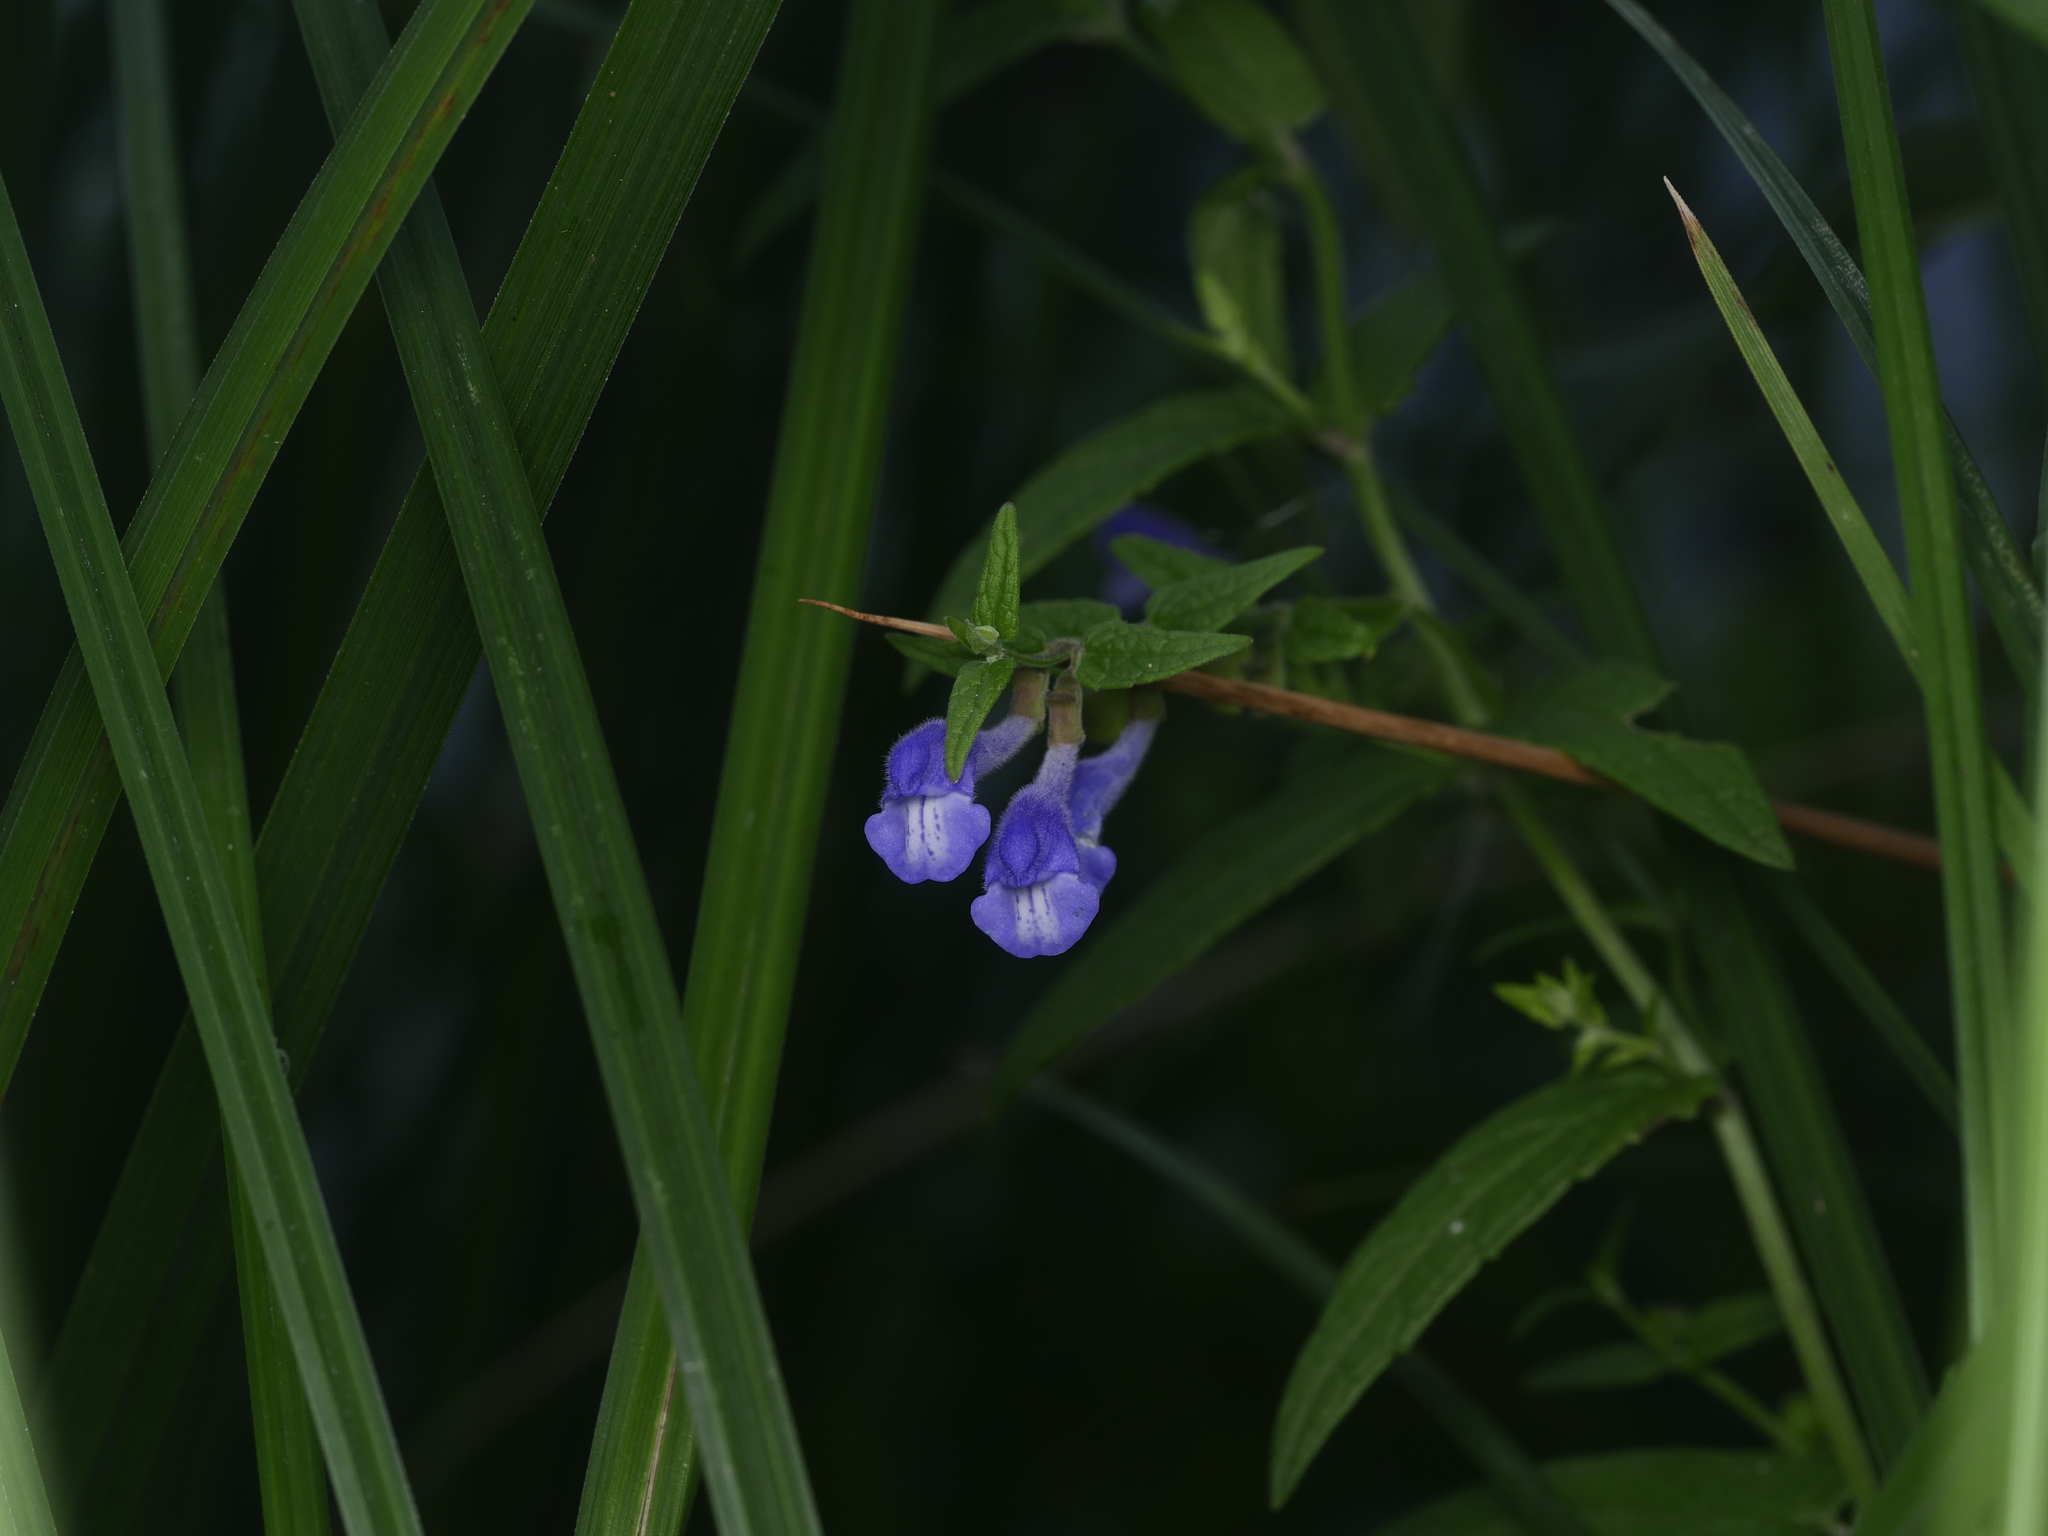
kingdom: Plantae
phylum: Tracheophyta
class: Magnoliopsida
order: Lamiales
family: Lamiaceae
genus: Scutellaria
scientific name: Scutellaria galericulata
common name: Skullcap
